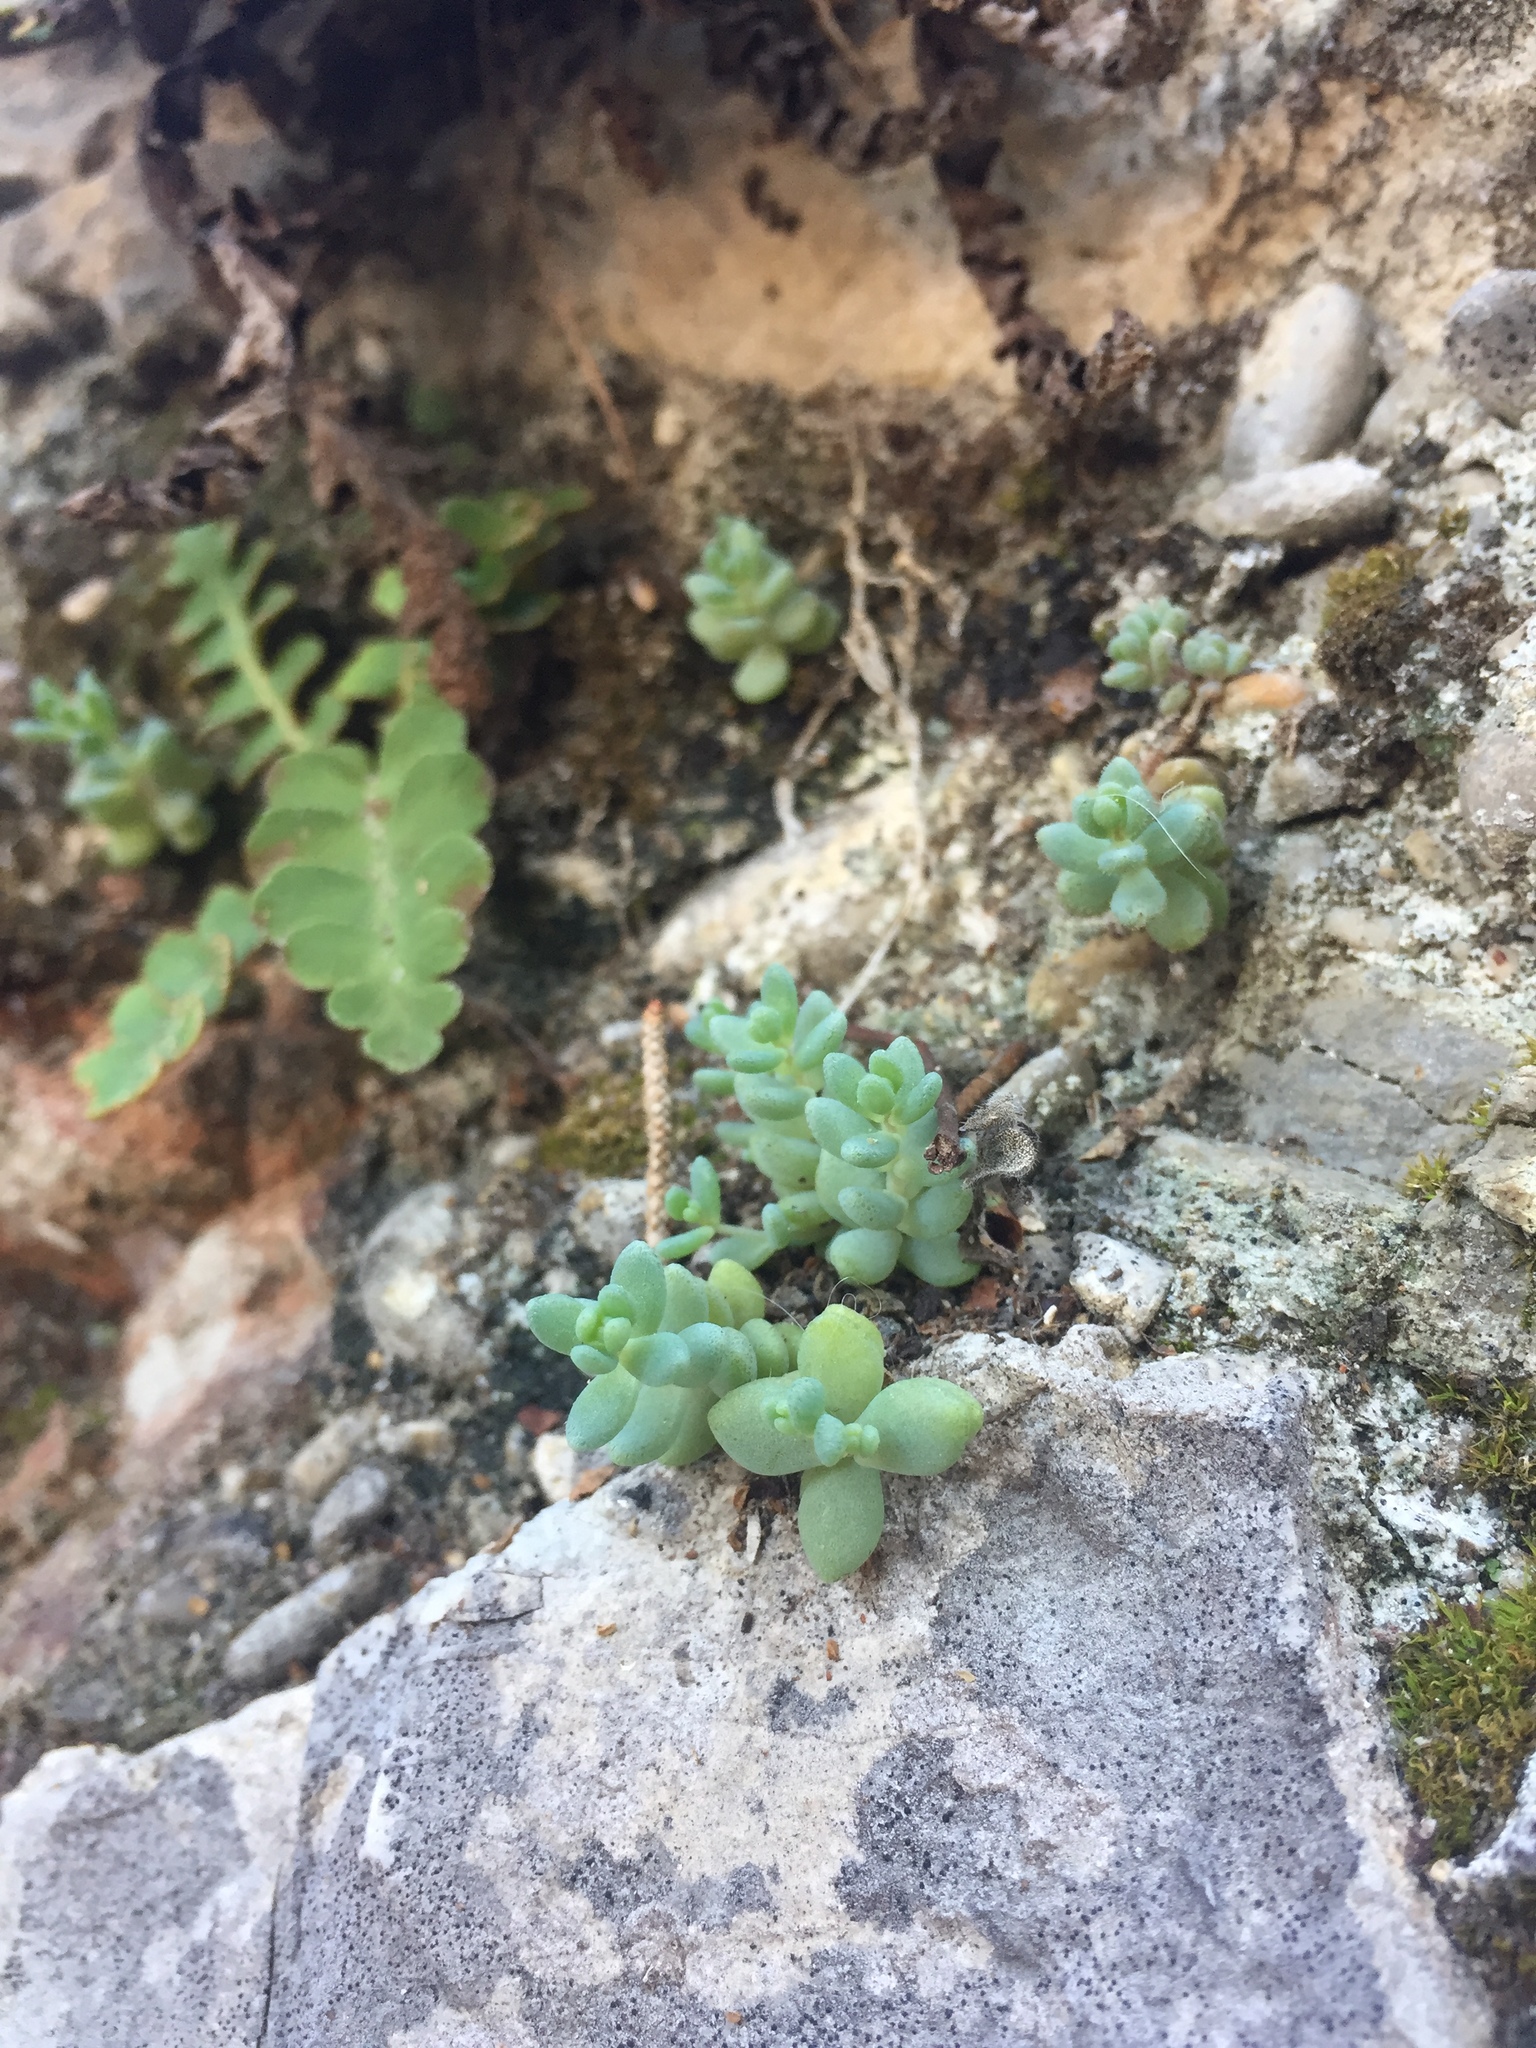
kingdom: Plantae
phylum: Tracheophyta
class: Magnoliopsida
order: Saxifragales
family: Crassulaceae
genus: Sedum
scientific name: Sedum dasyphyllum
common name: Thick-leaf stonecrop
